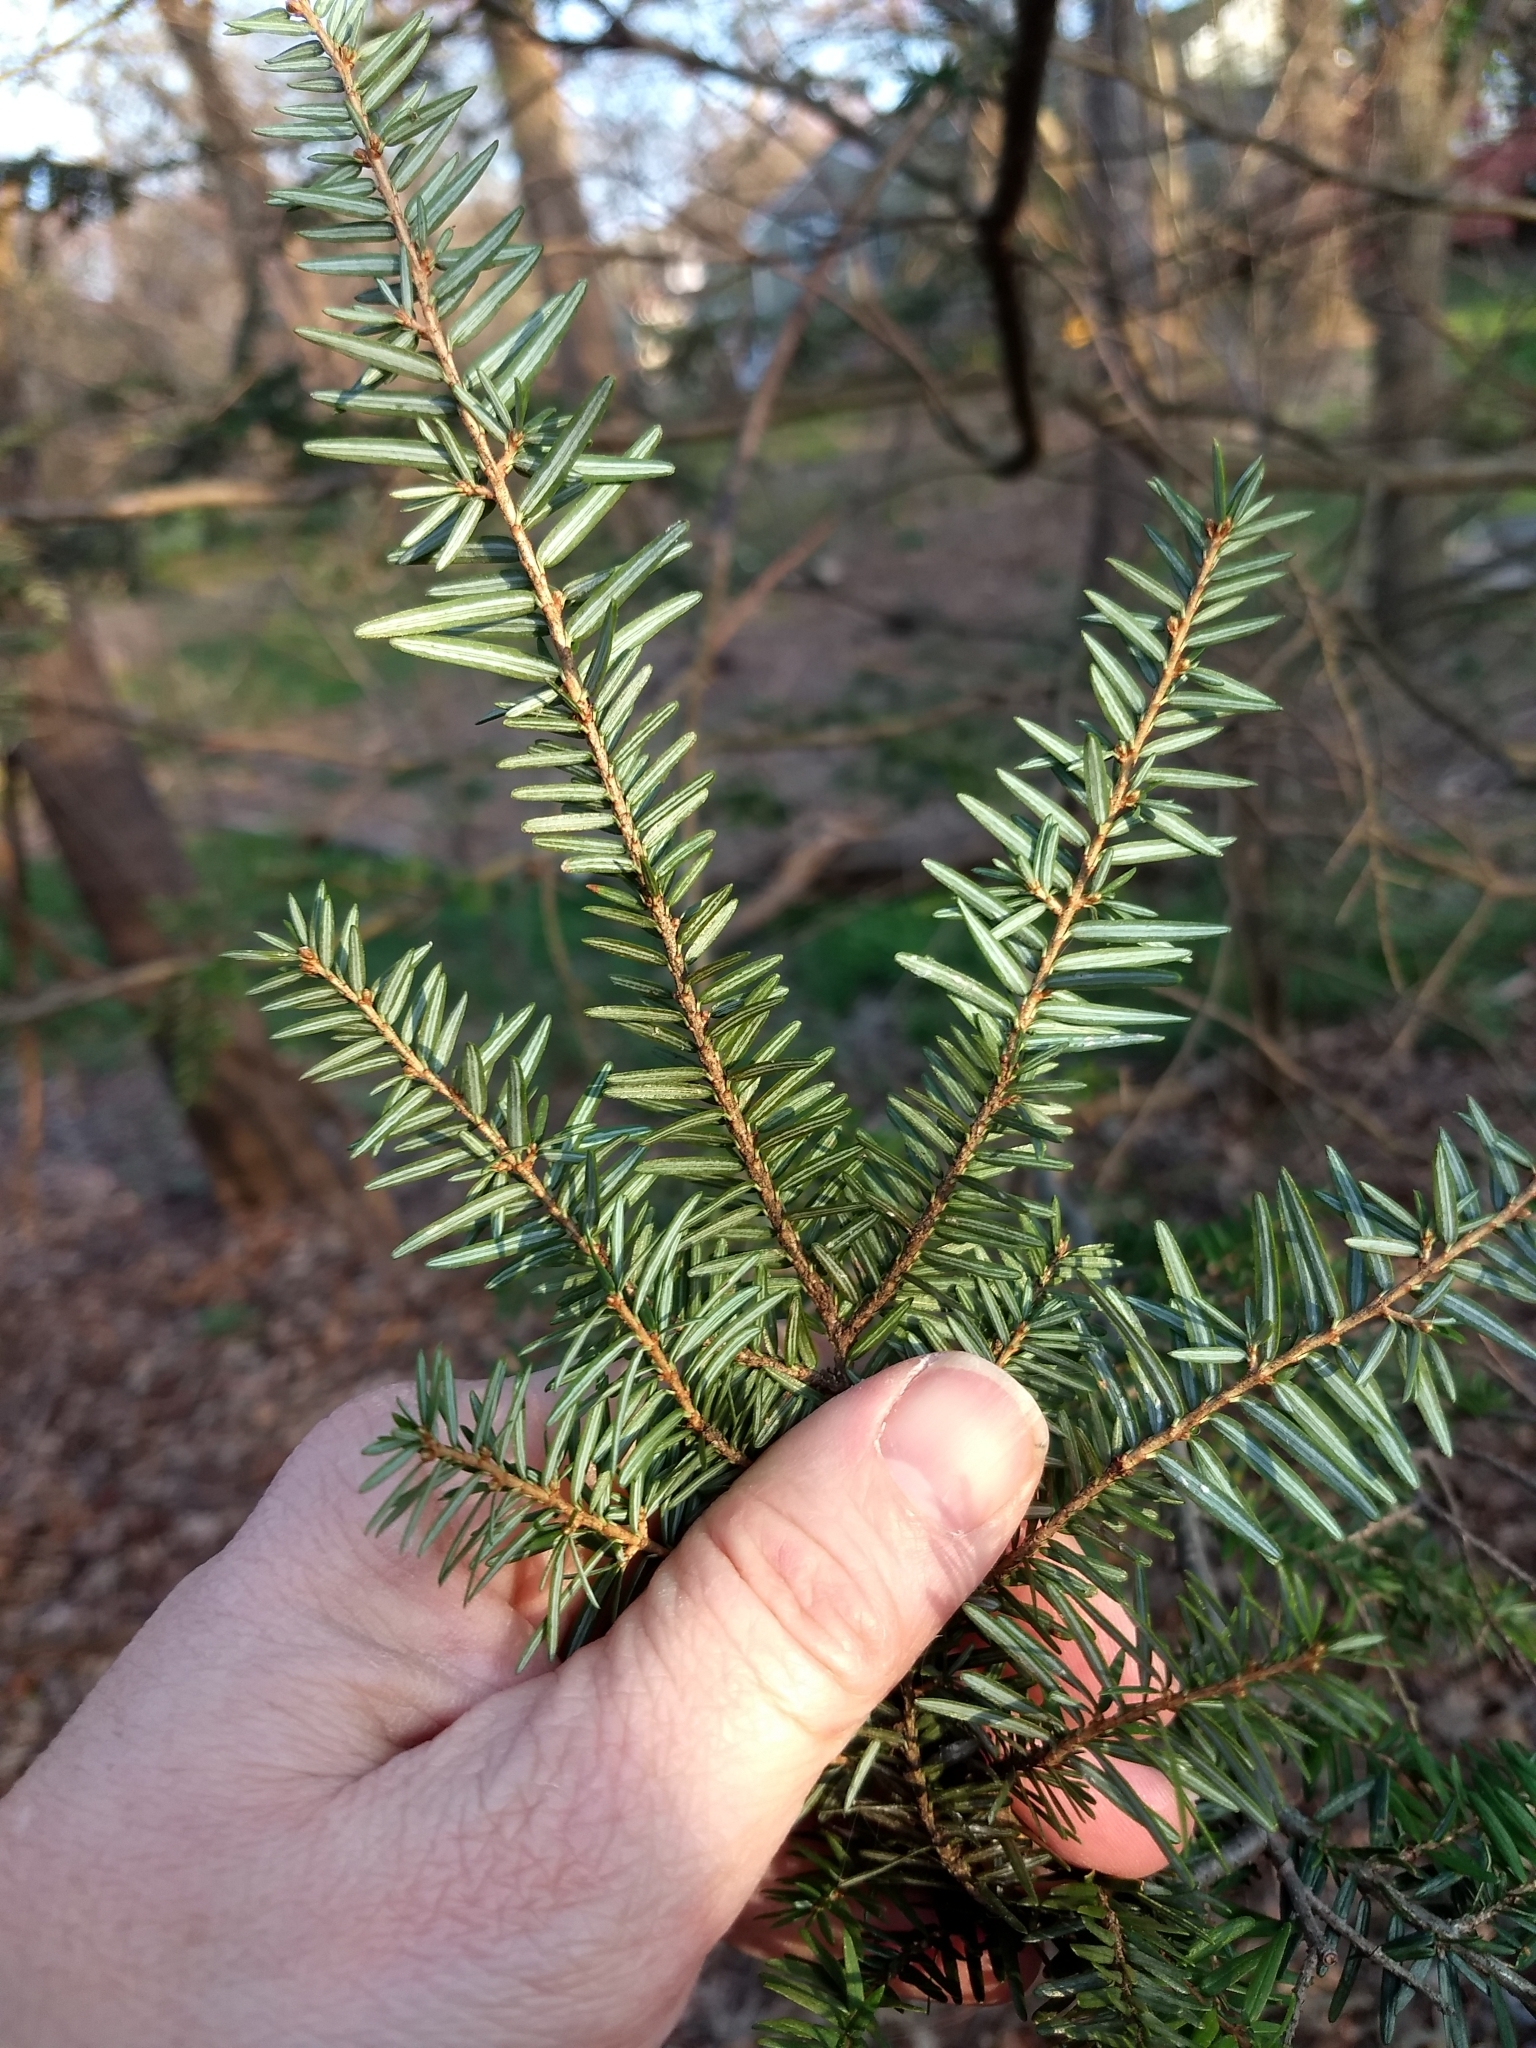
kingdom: Plantae
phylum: Tracheophyta
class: Pinopsida
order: Pinales
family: Pinaceae
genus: Tsuga
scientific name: Tsuga canadensis
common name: Eastern hemlock
